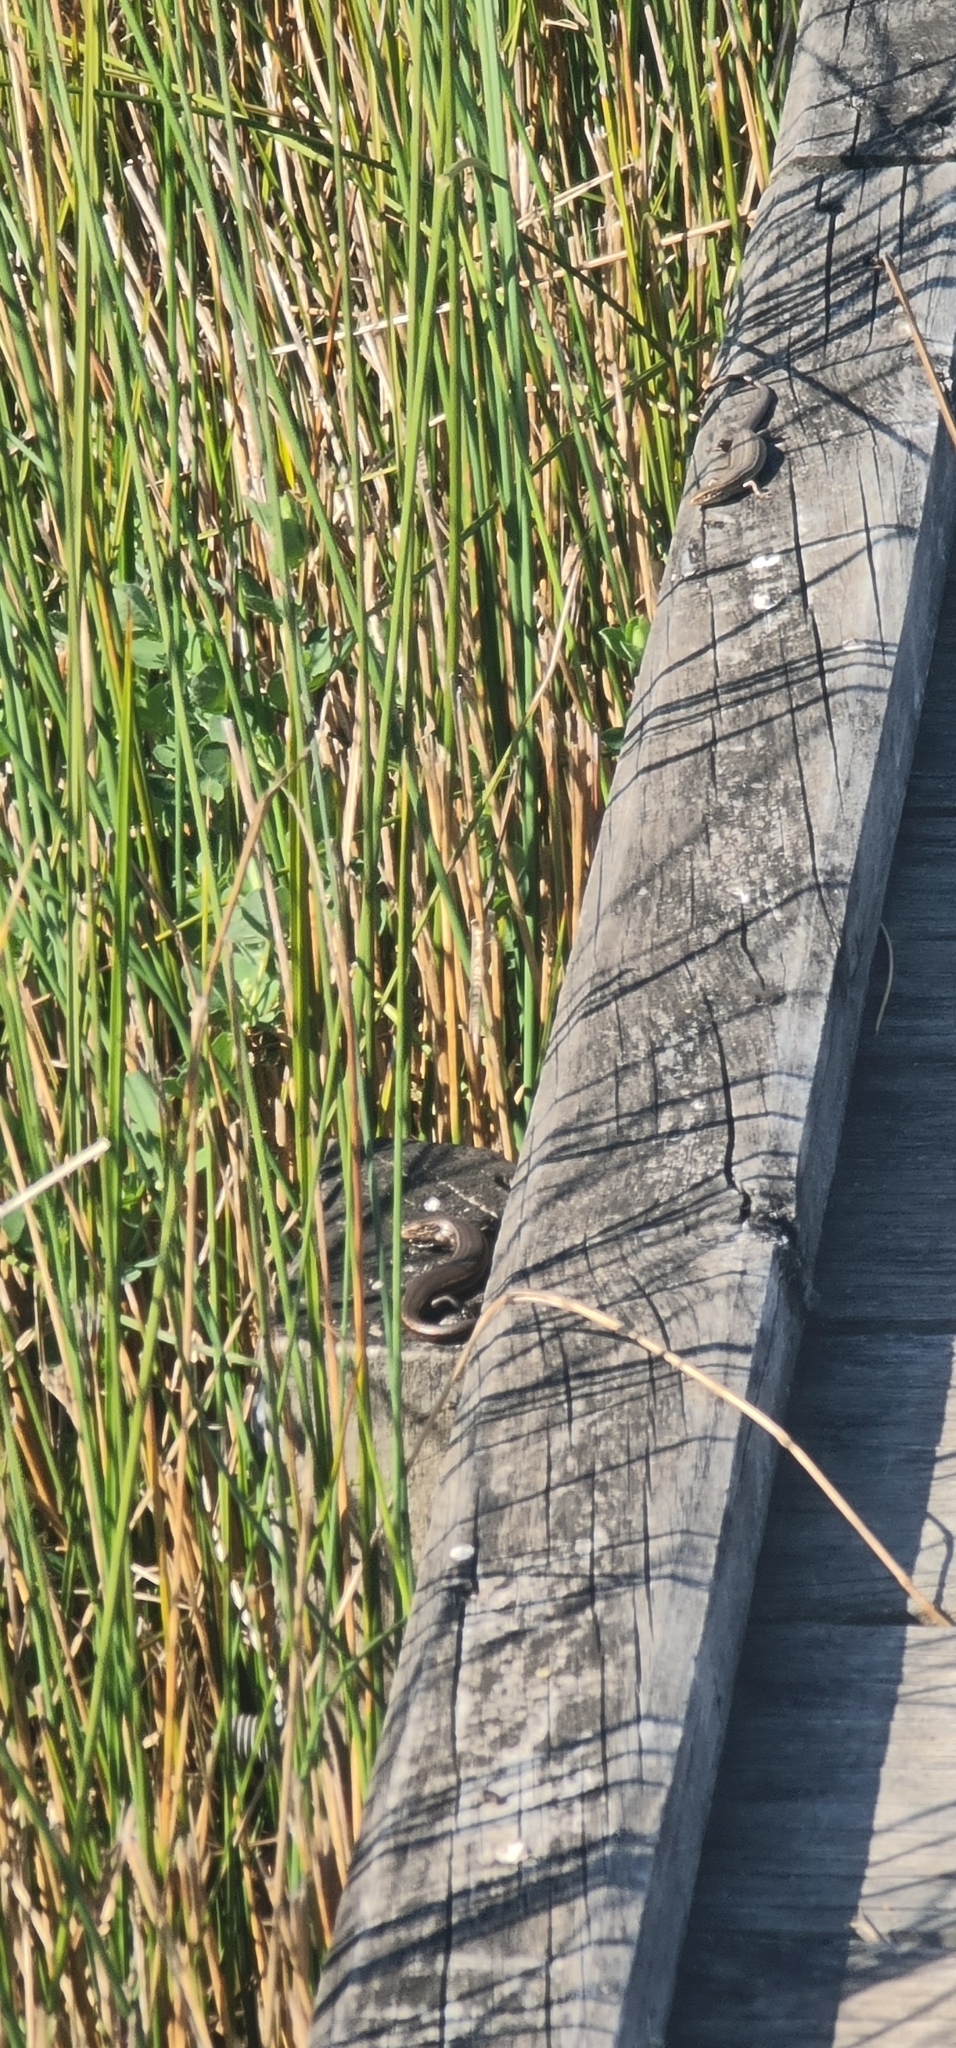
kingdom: Animalia
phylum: Chordata
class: Squamata
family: Scincidae
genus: Pseudemoia
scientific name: Pseudemoia entrecasteauxii
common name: Entrecasteaux's skink
